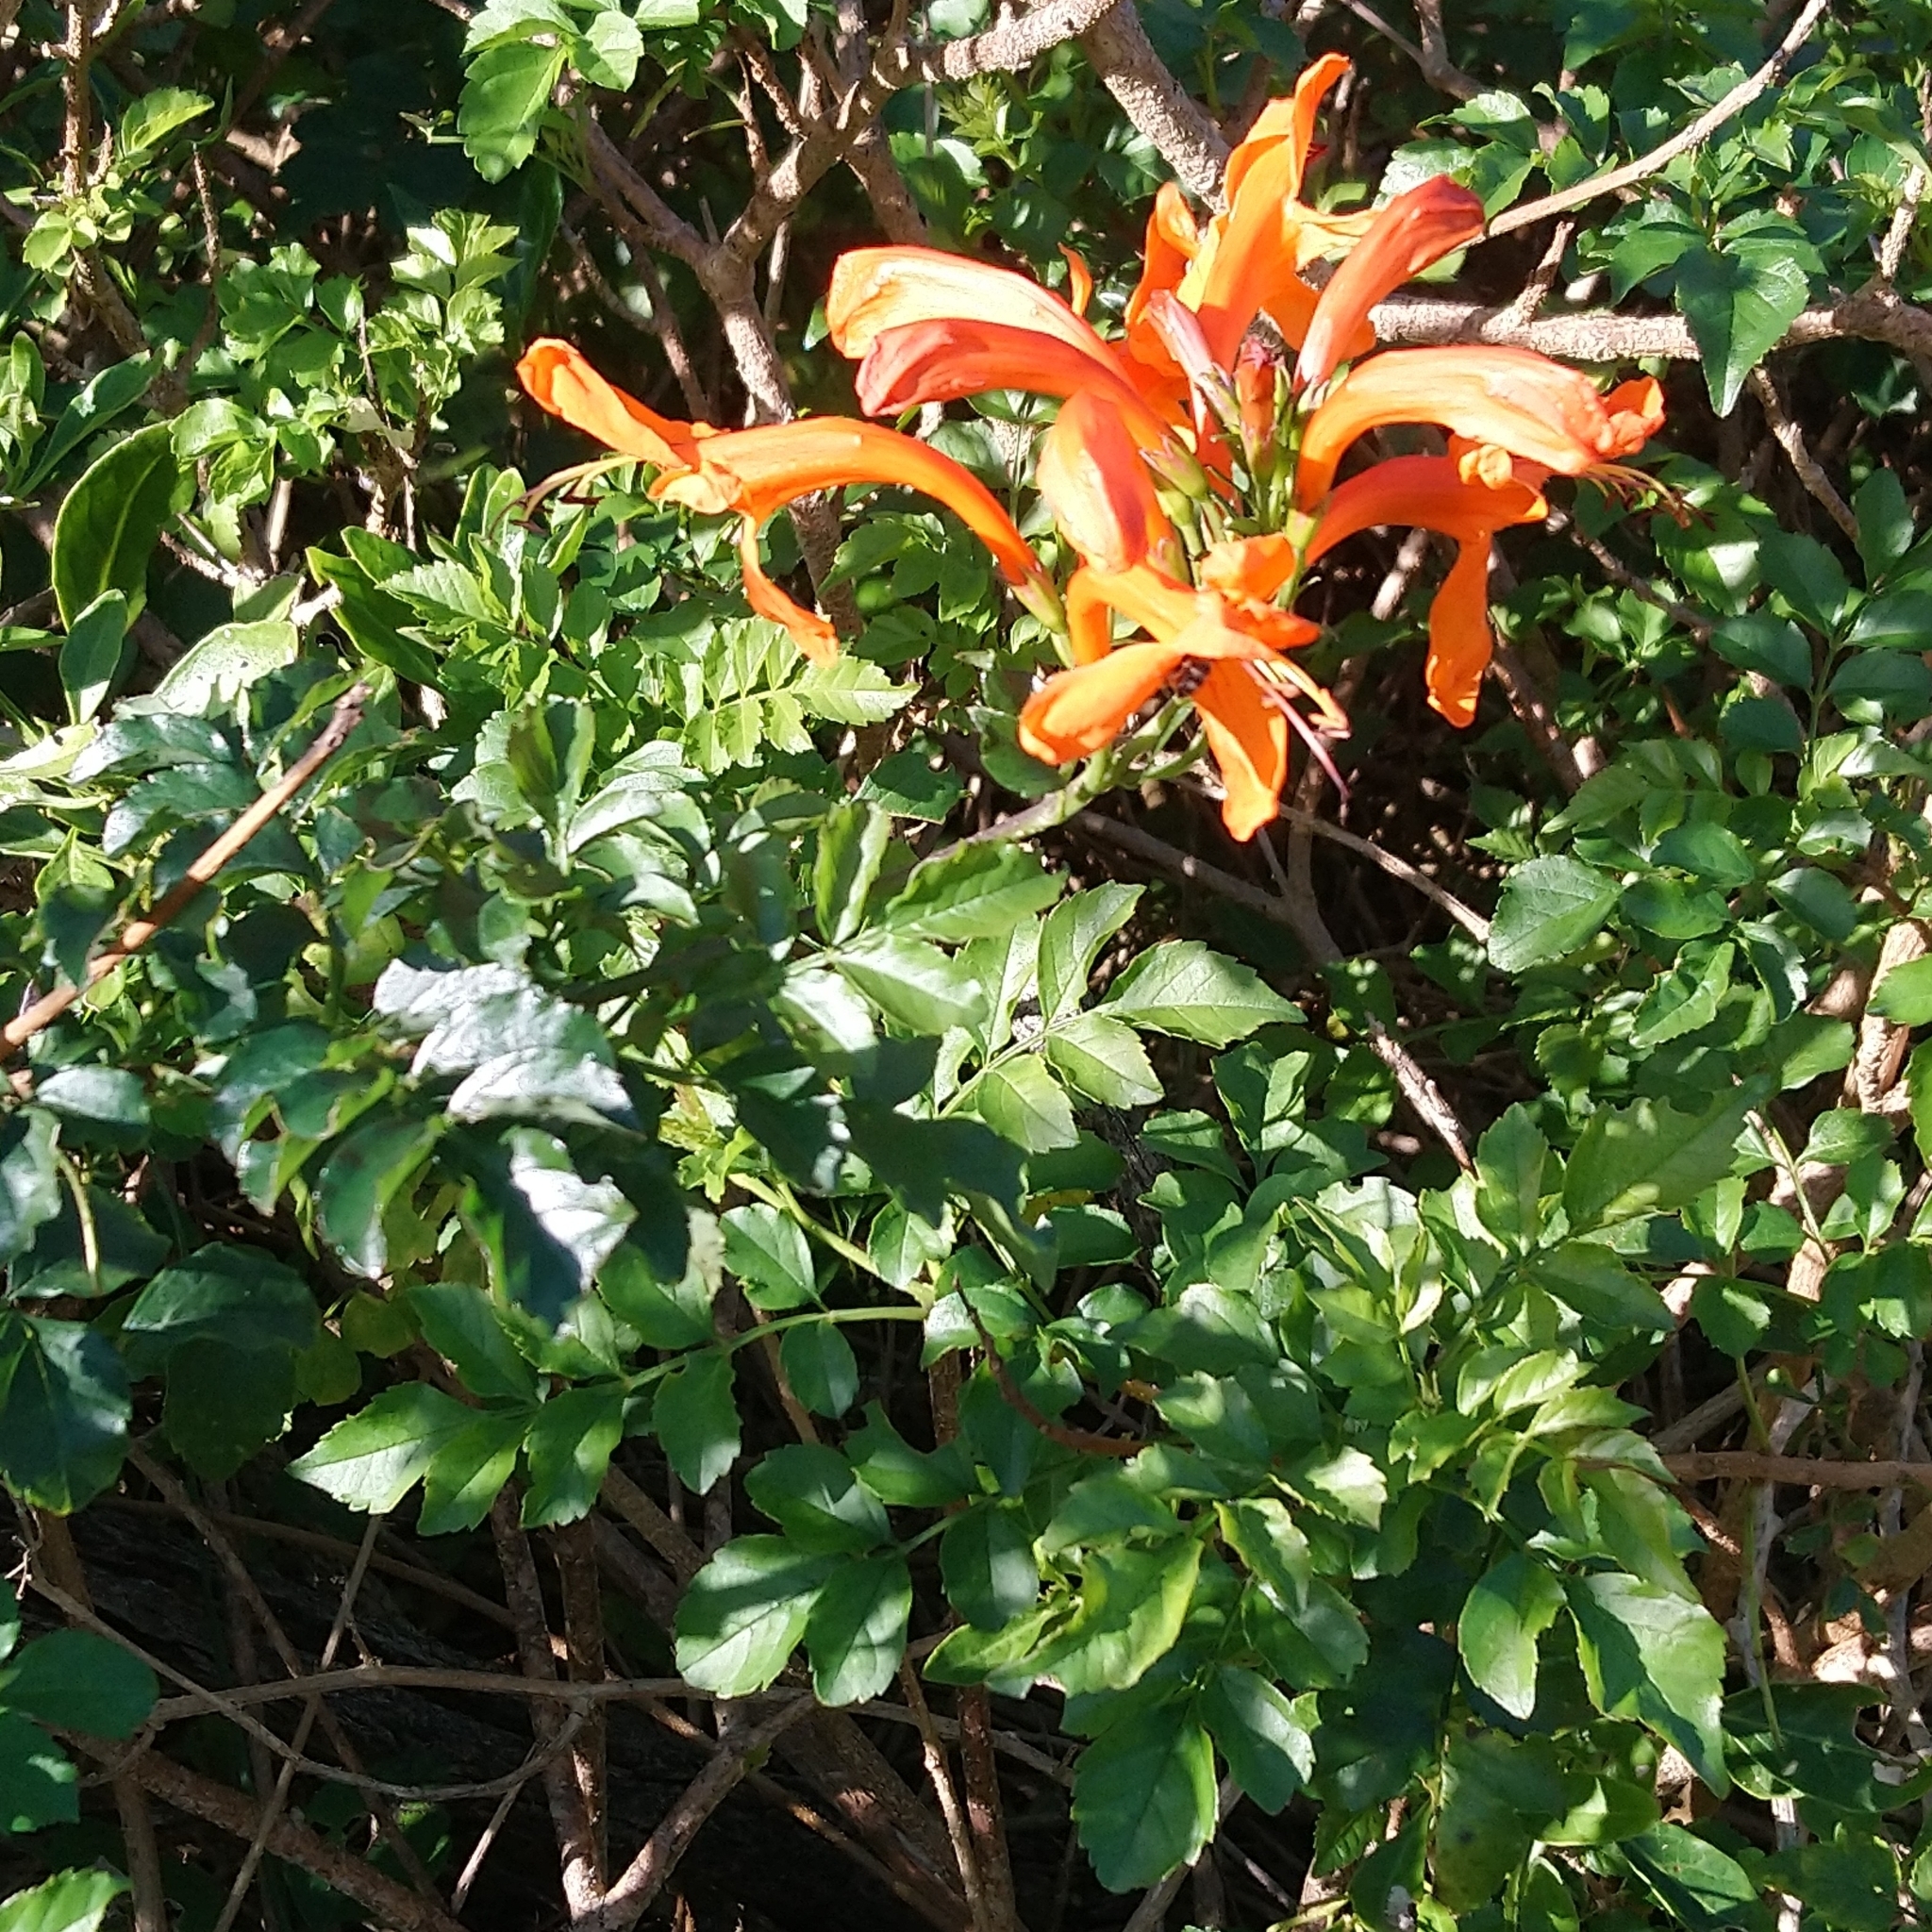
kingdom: Plantae
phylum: Tracheophyta
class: Magnoliopsida
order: Lamiales
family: Bignoniaceae
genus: Tecomaria
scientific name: Tecomaria capensis
